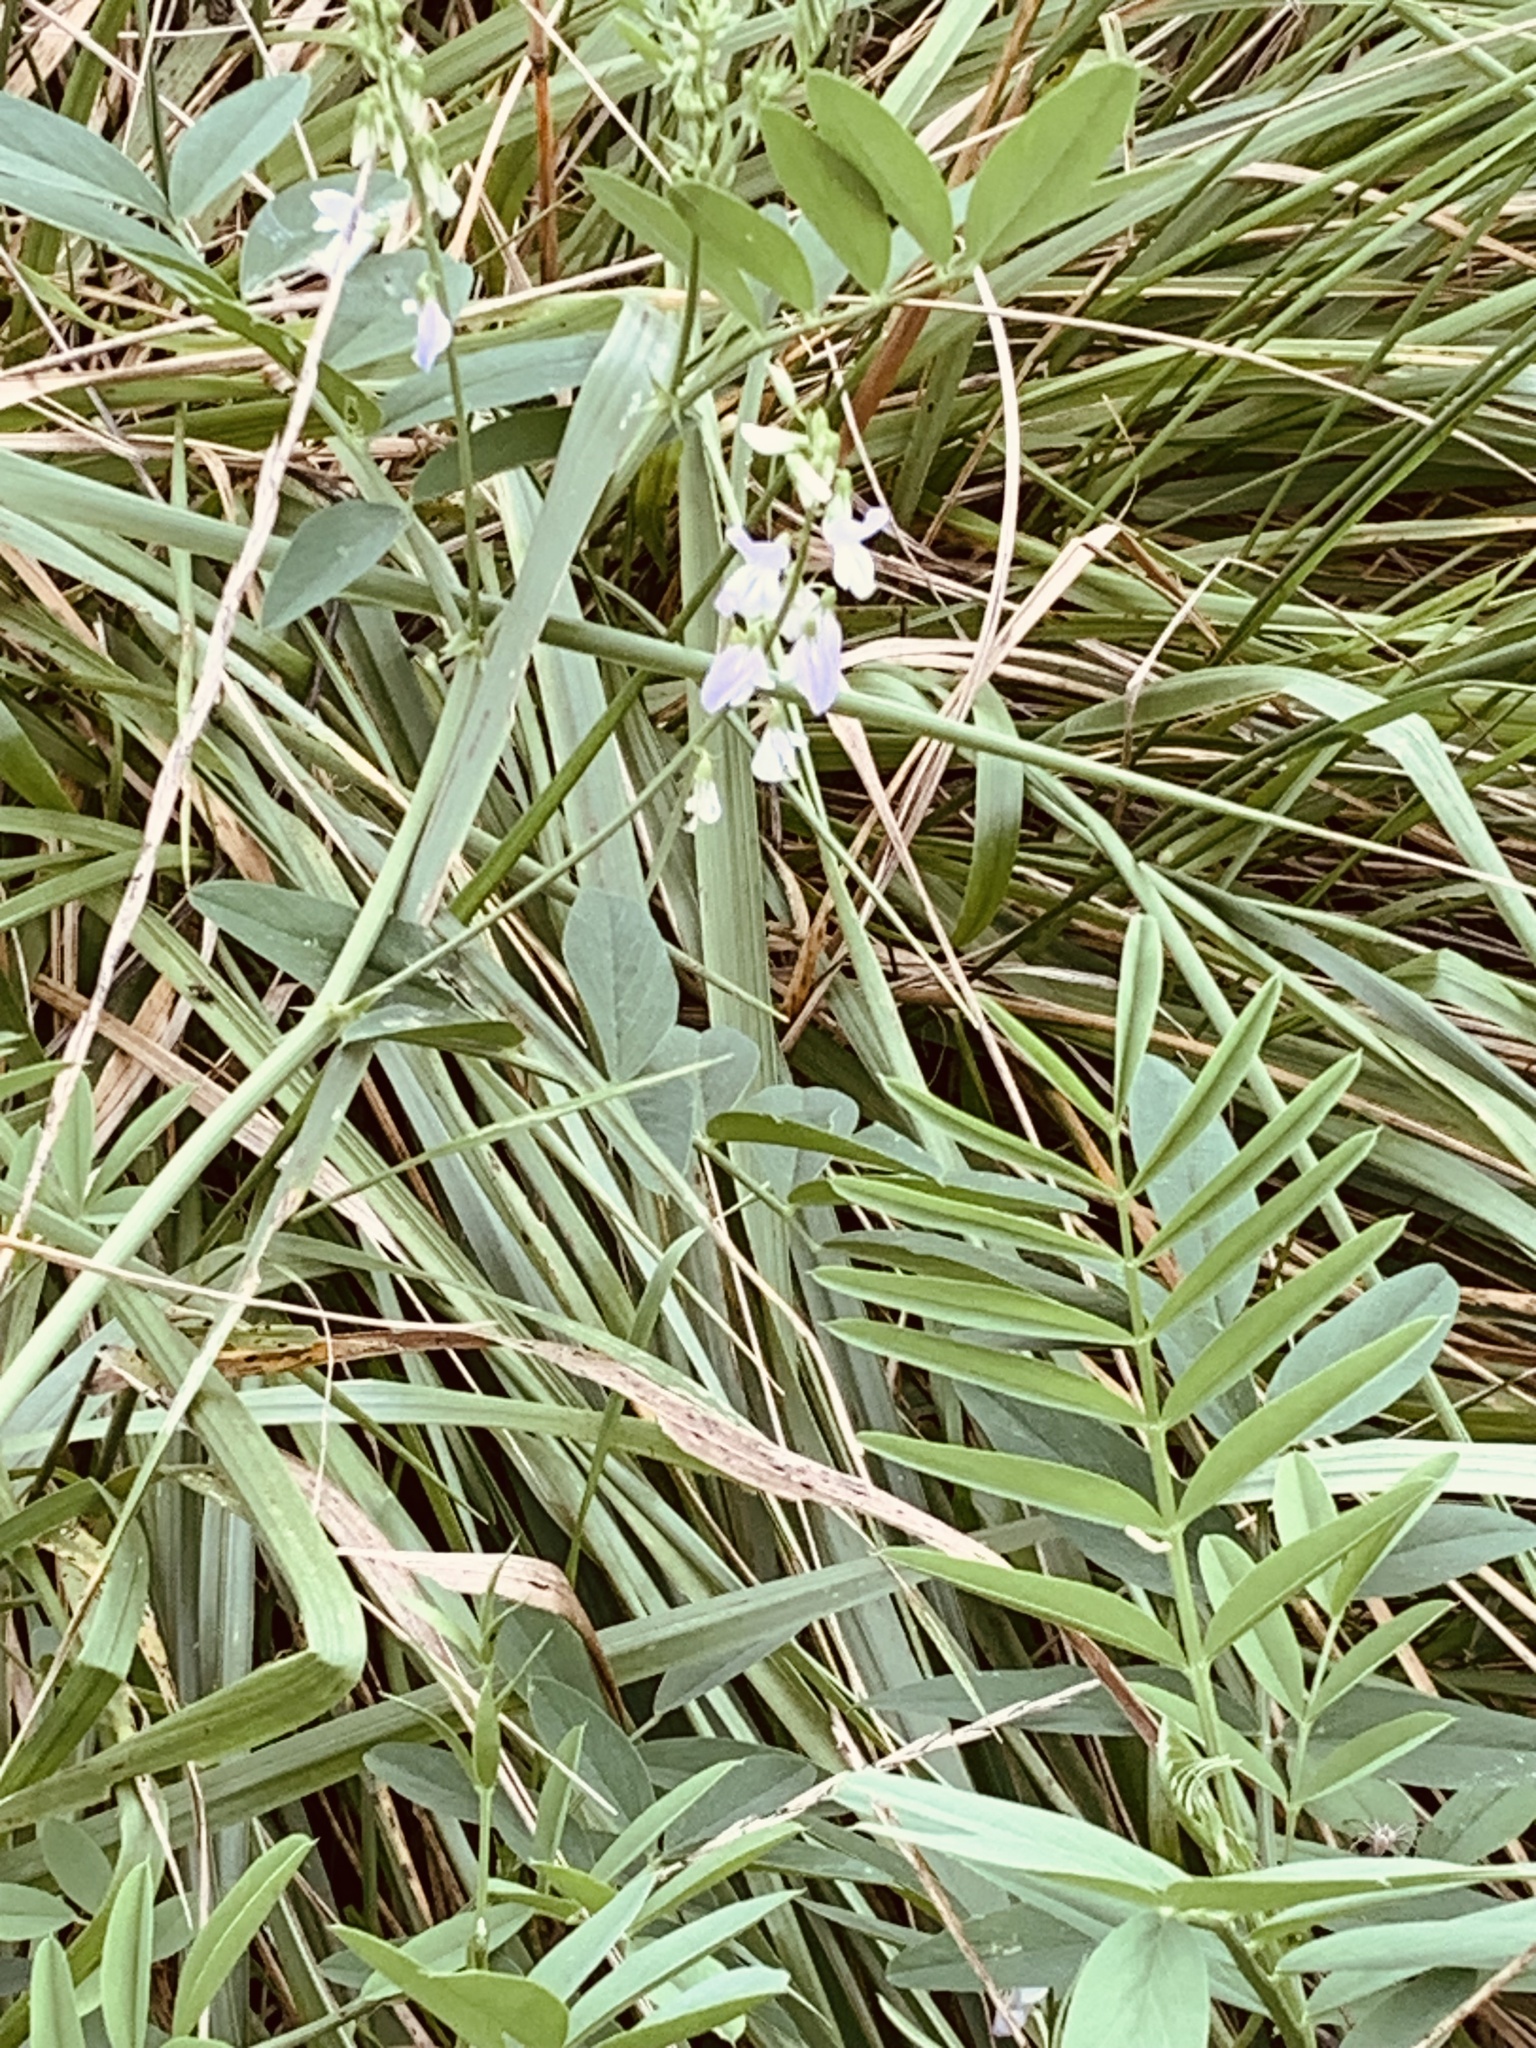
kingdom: Plantae
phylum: Tracheophyta
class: Magnoliopsida
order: Fabales
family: Fabaceae
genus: Galega
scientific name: Galega officinalis
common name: Goat's-rue
